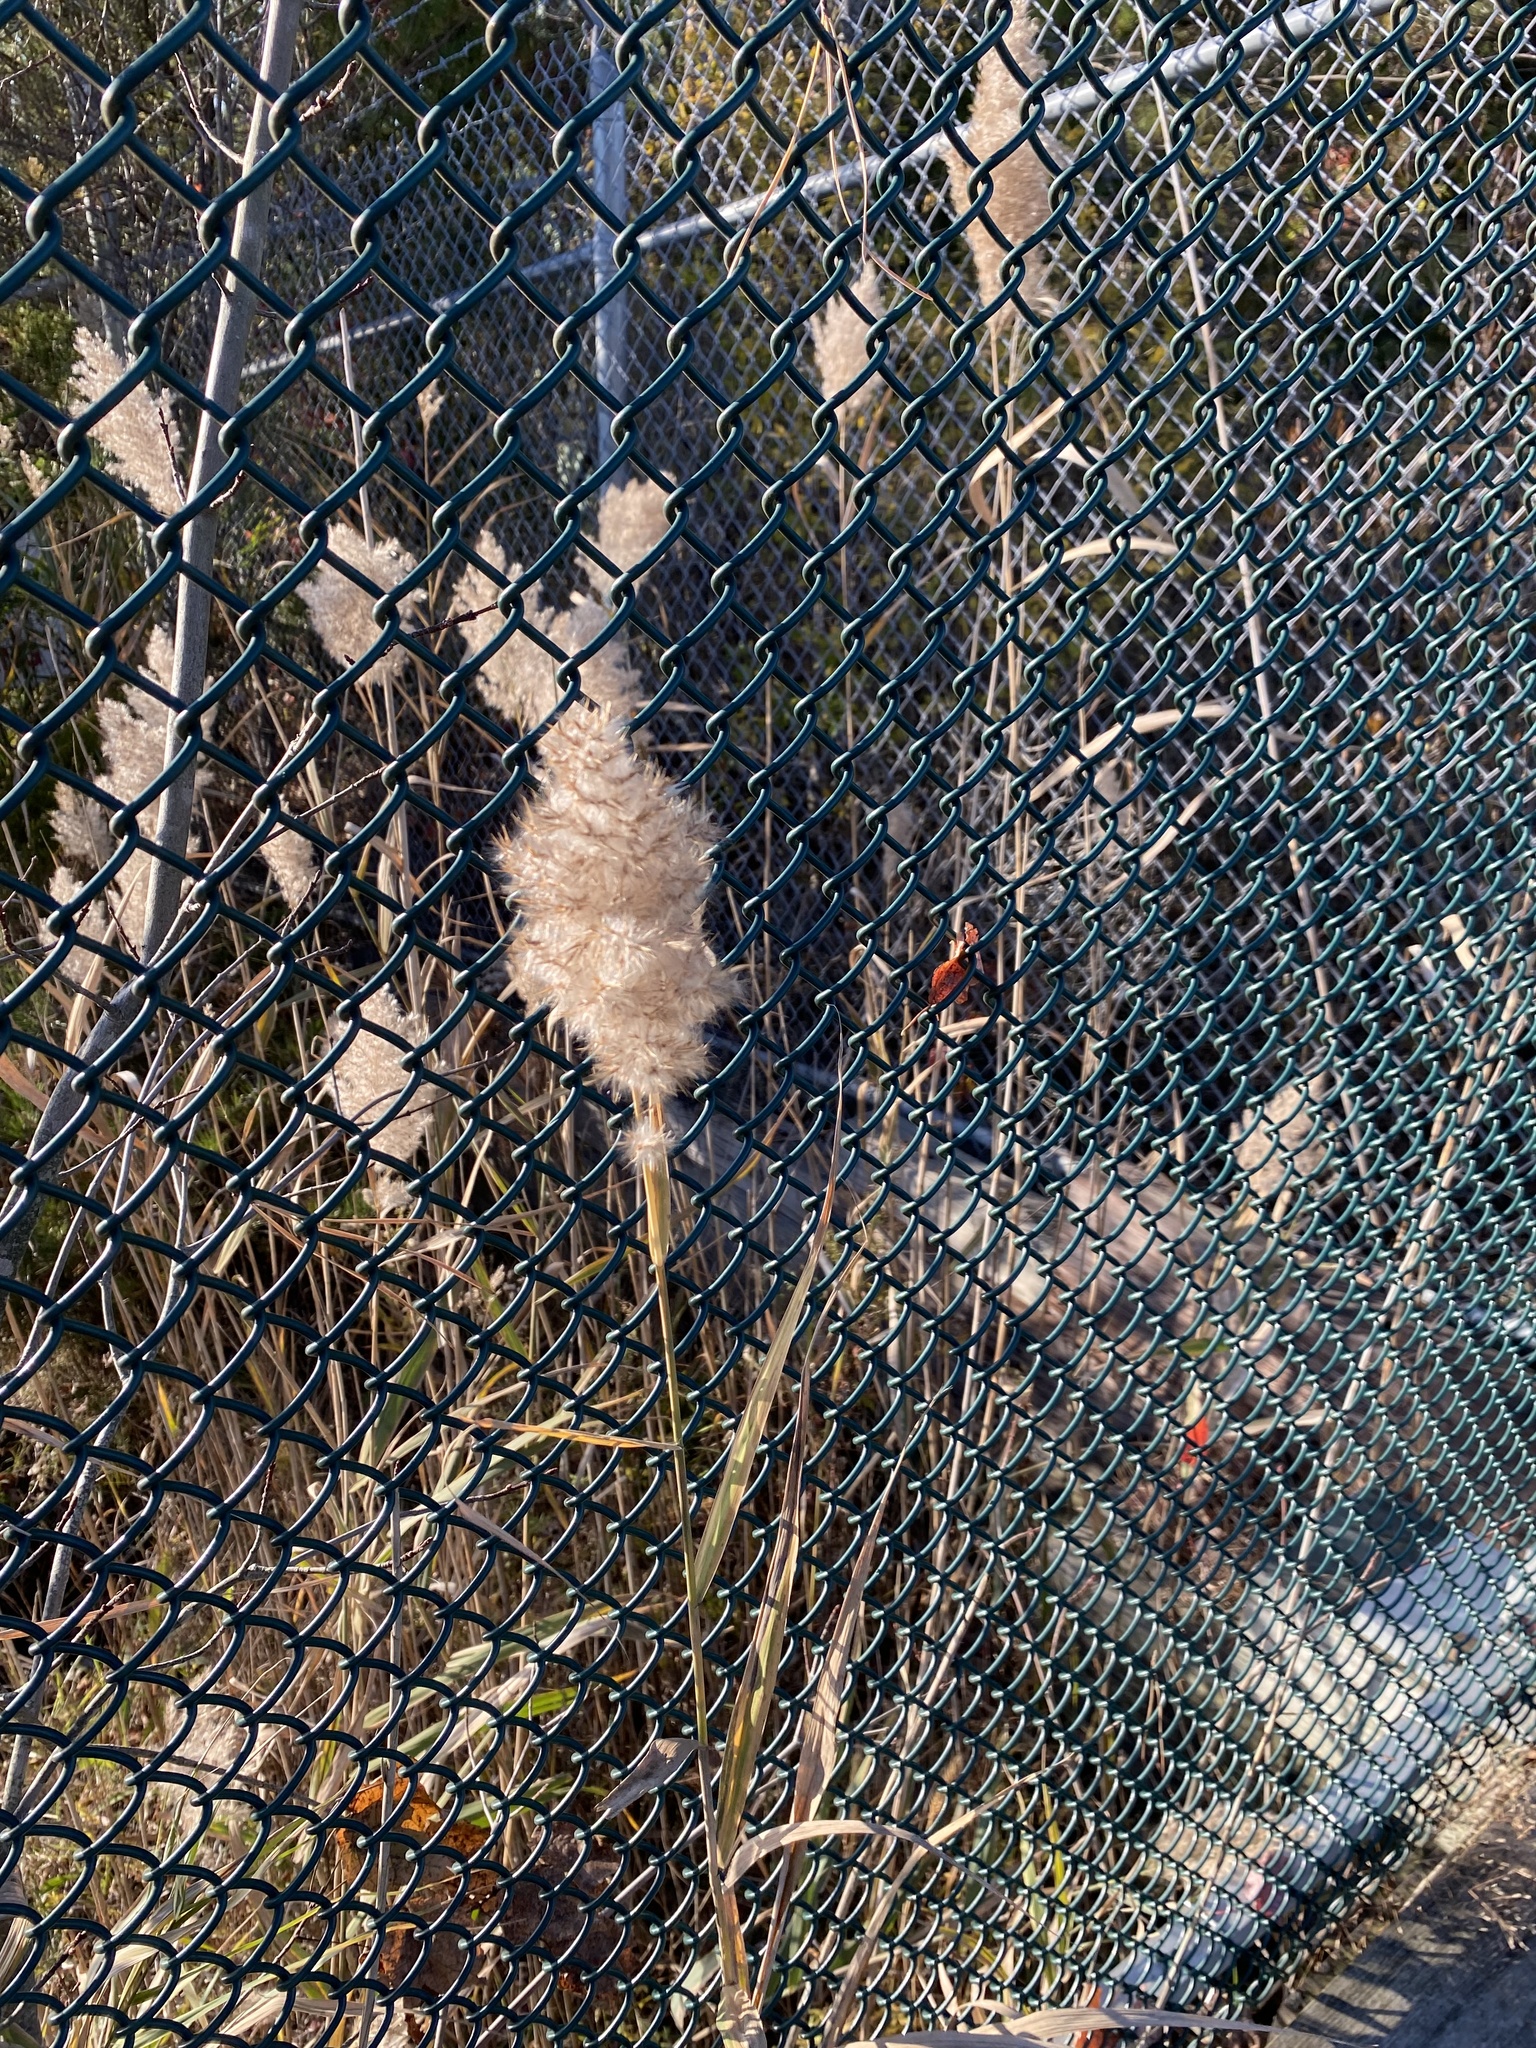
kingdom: Plantae
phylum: Tracheophyta
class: Liliopsida
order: Poales
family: Poaceae
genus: Phragmites
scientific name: Phragmites australis
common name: Common reed
